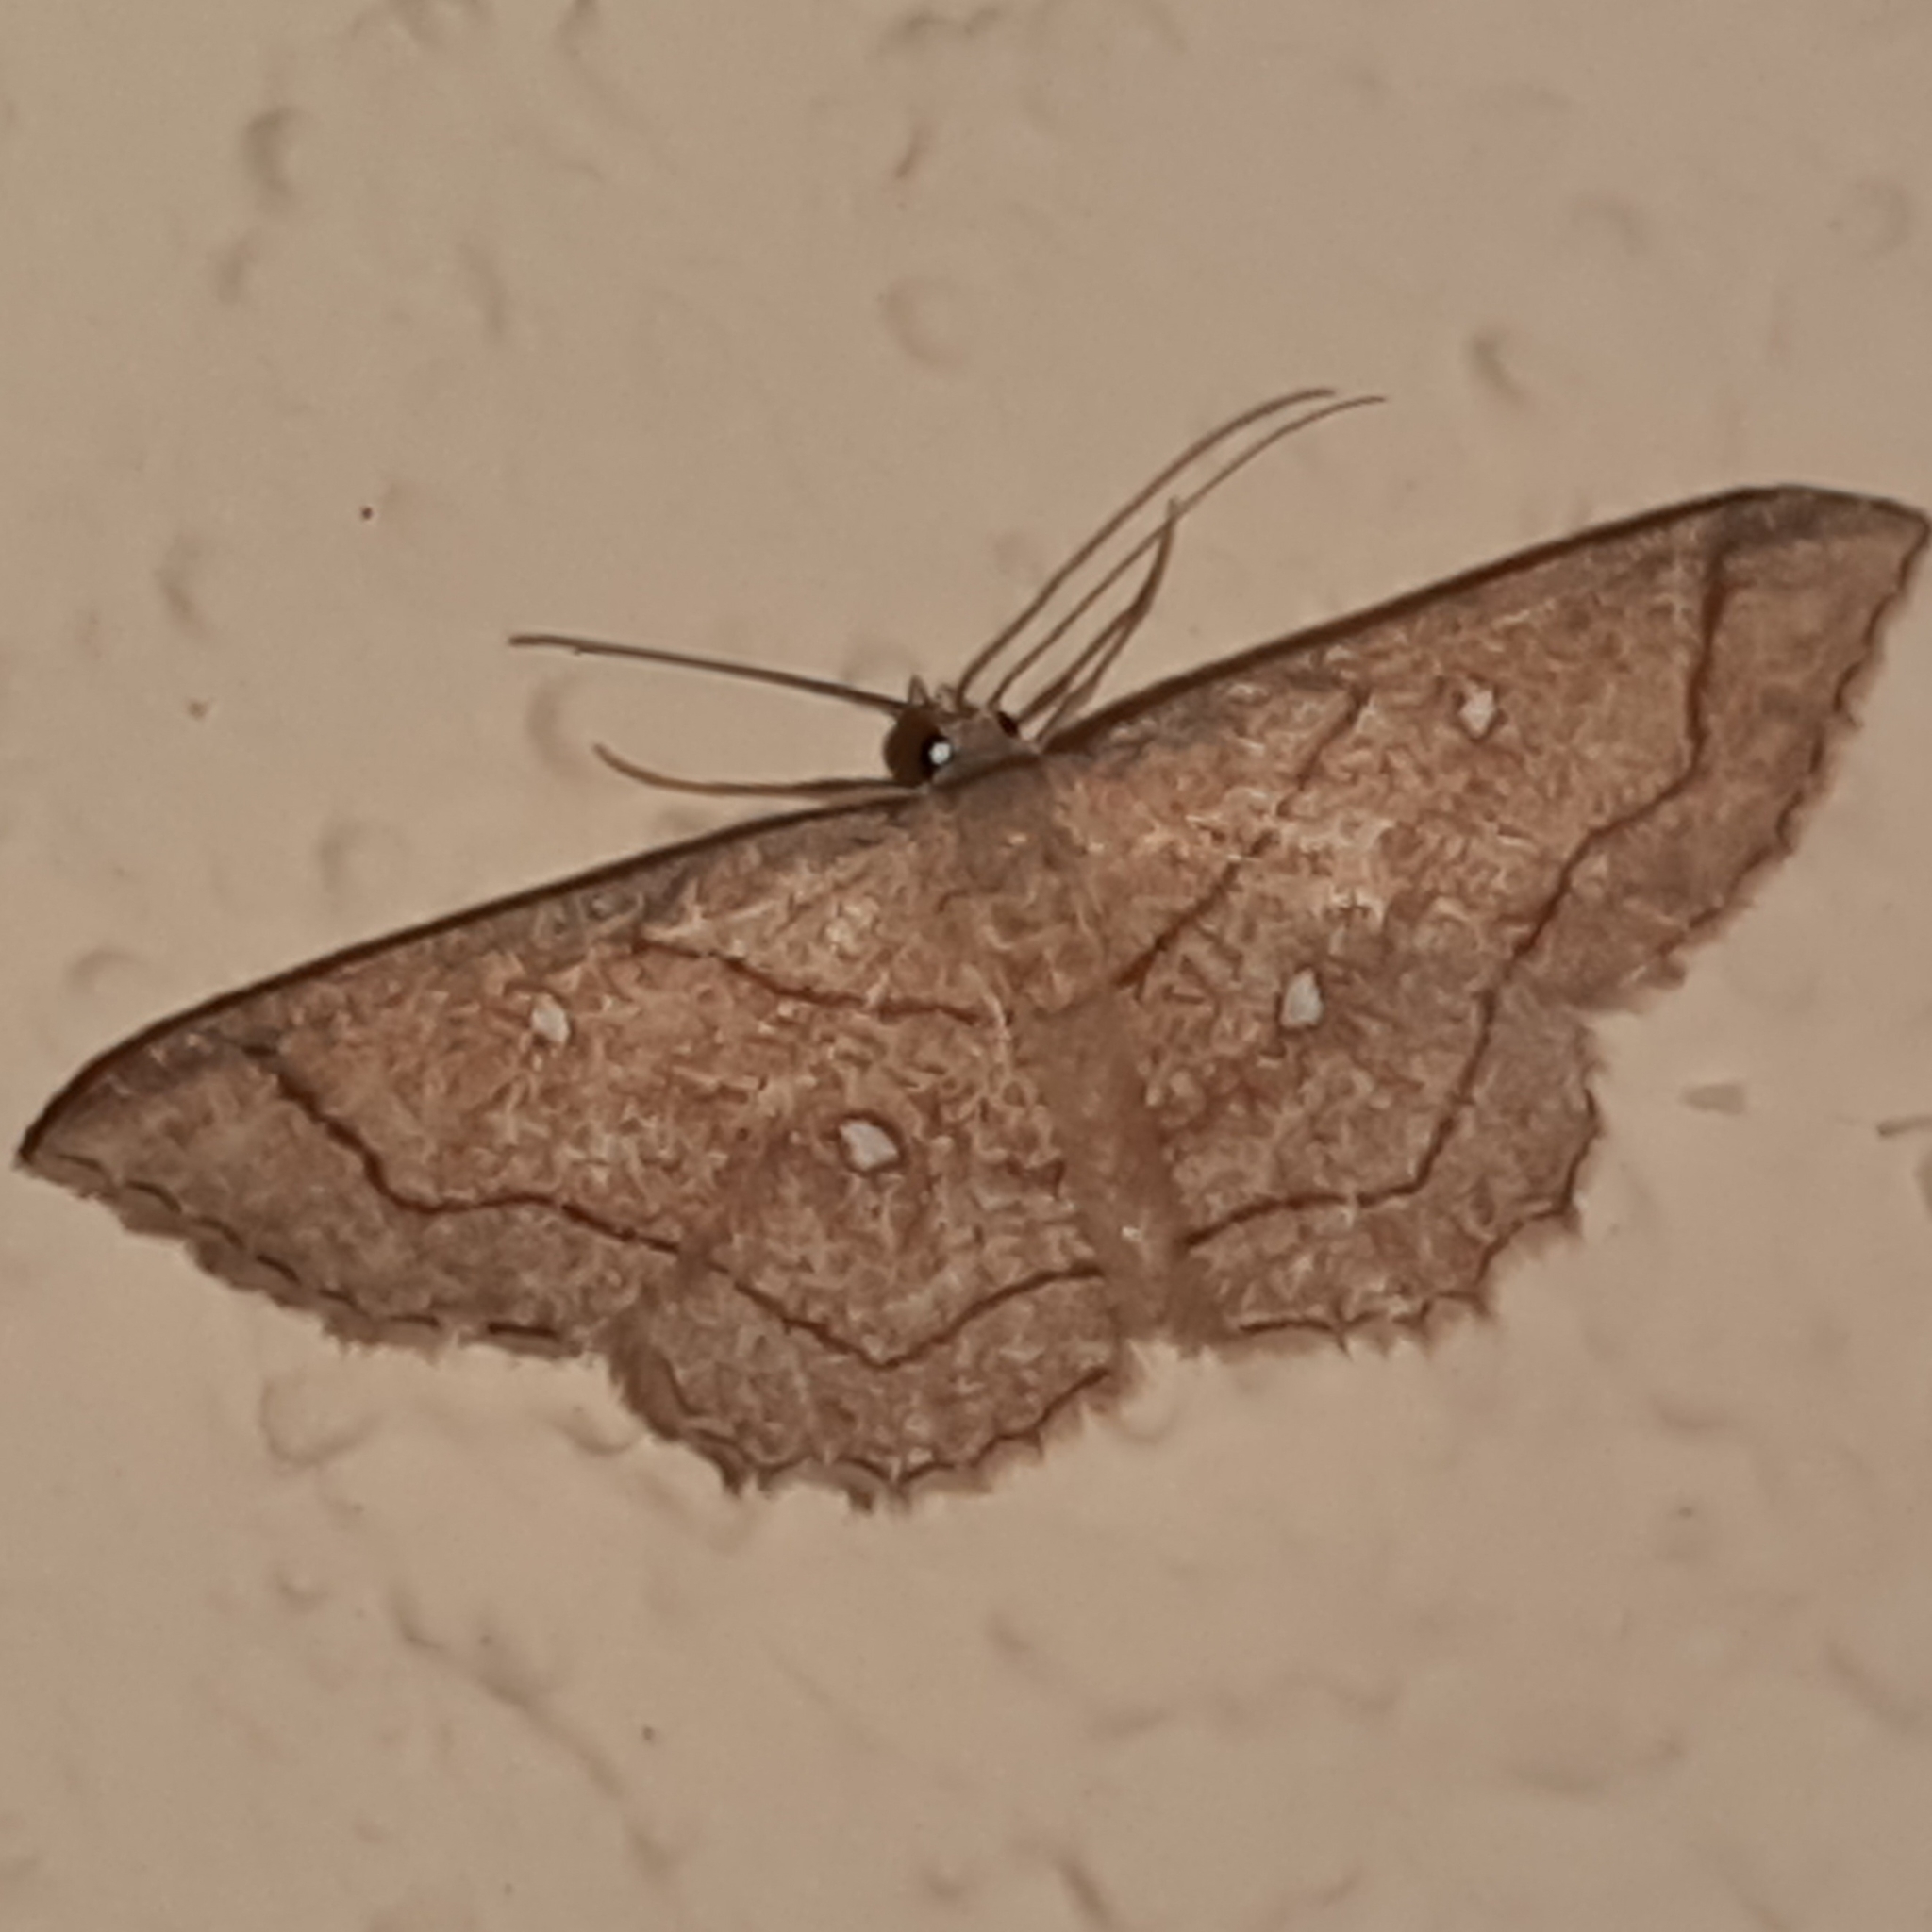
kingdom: Animalia
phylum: Arthropoda
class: Insecta
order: Lepidoptera
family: Geometridae
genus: Cyclophora
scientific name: Cyclophora coecaria
